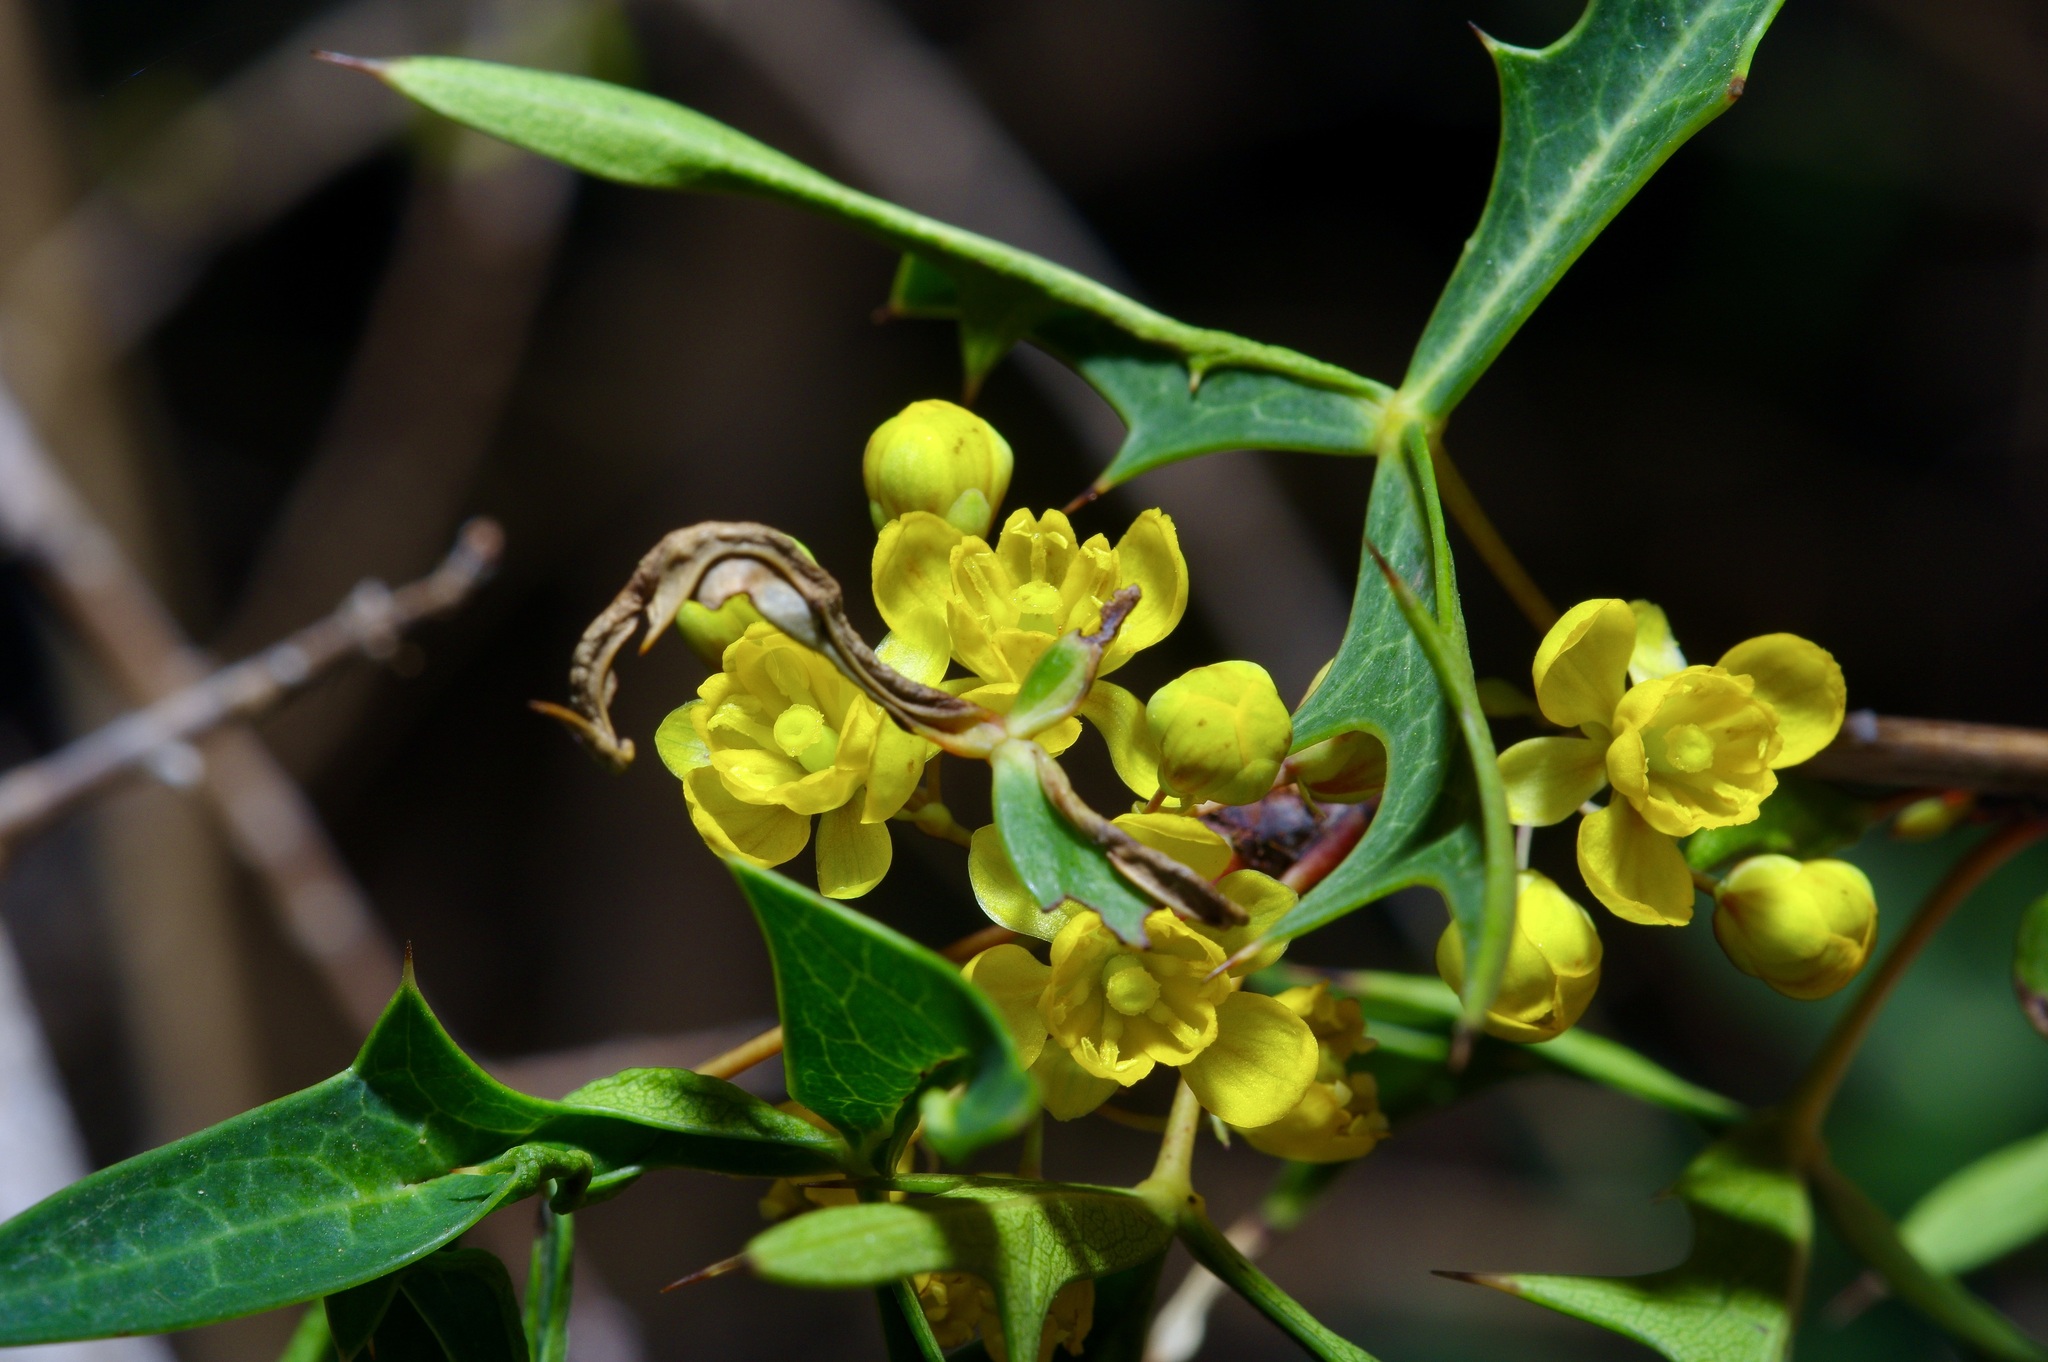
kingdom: Plantae
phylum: Tracheophyta
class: Magnoliopsida
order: Ranunculales
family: Berberidaceae
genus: Alloberberis
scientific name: Alloberberis trifoliolata
